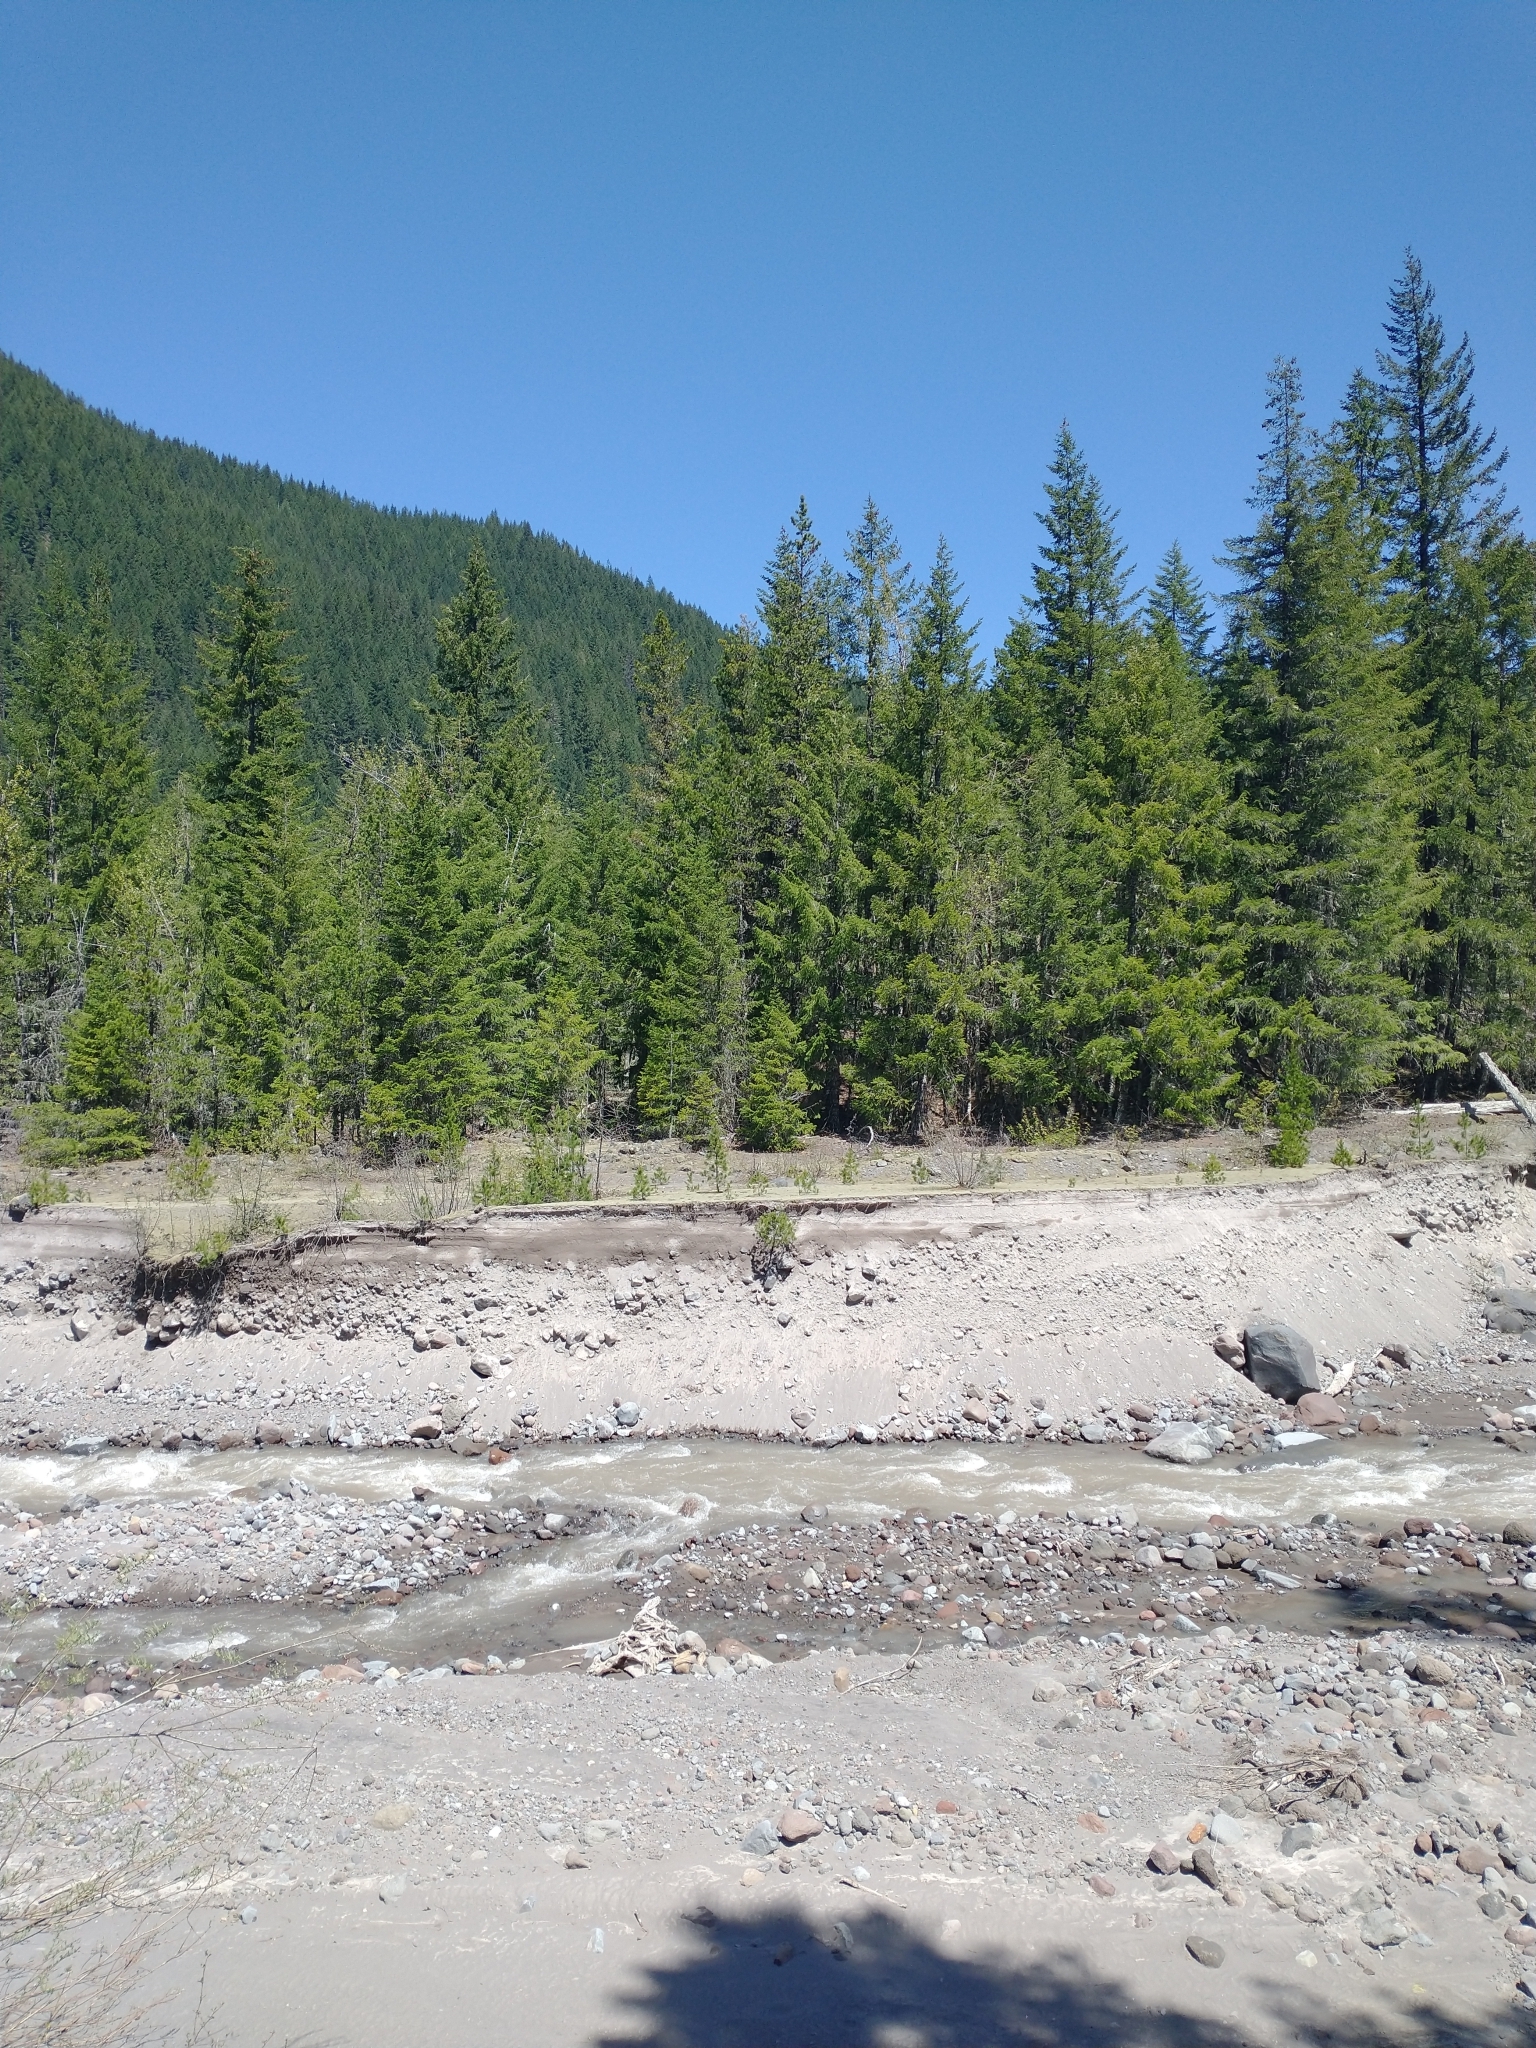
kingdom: Plantae
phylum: Tracheophyta
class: Pinopsida
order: Pinales
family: Pinaceae
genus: Pseudotsuga
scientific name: Pseudotsuga menziesii
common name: Douglas fir
